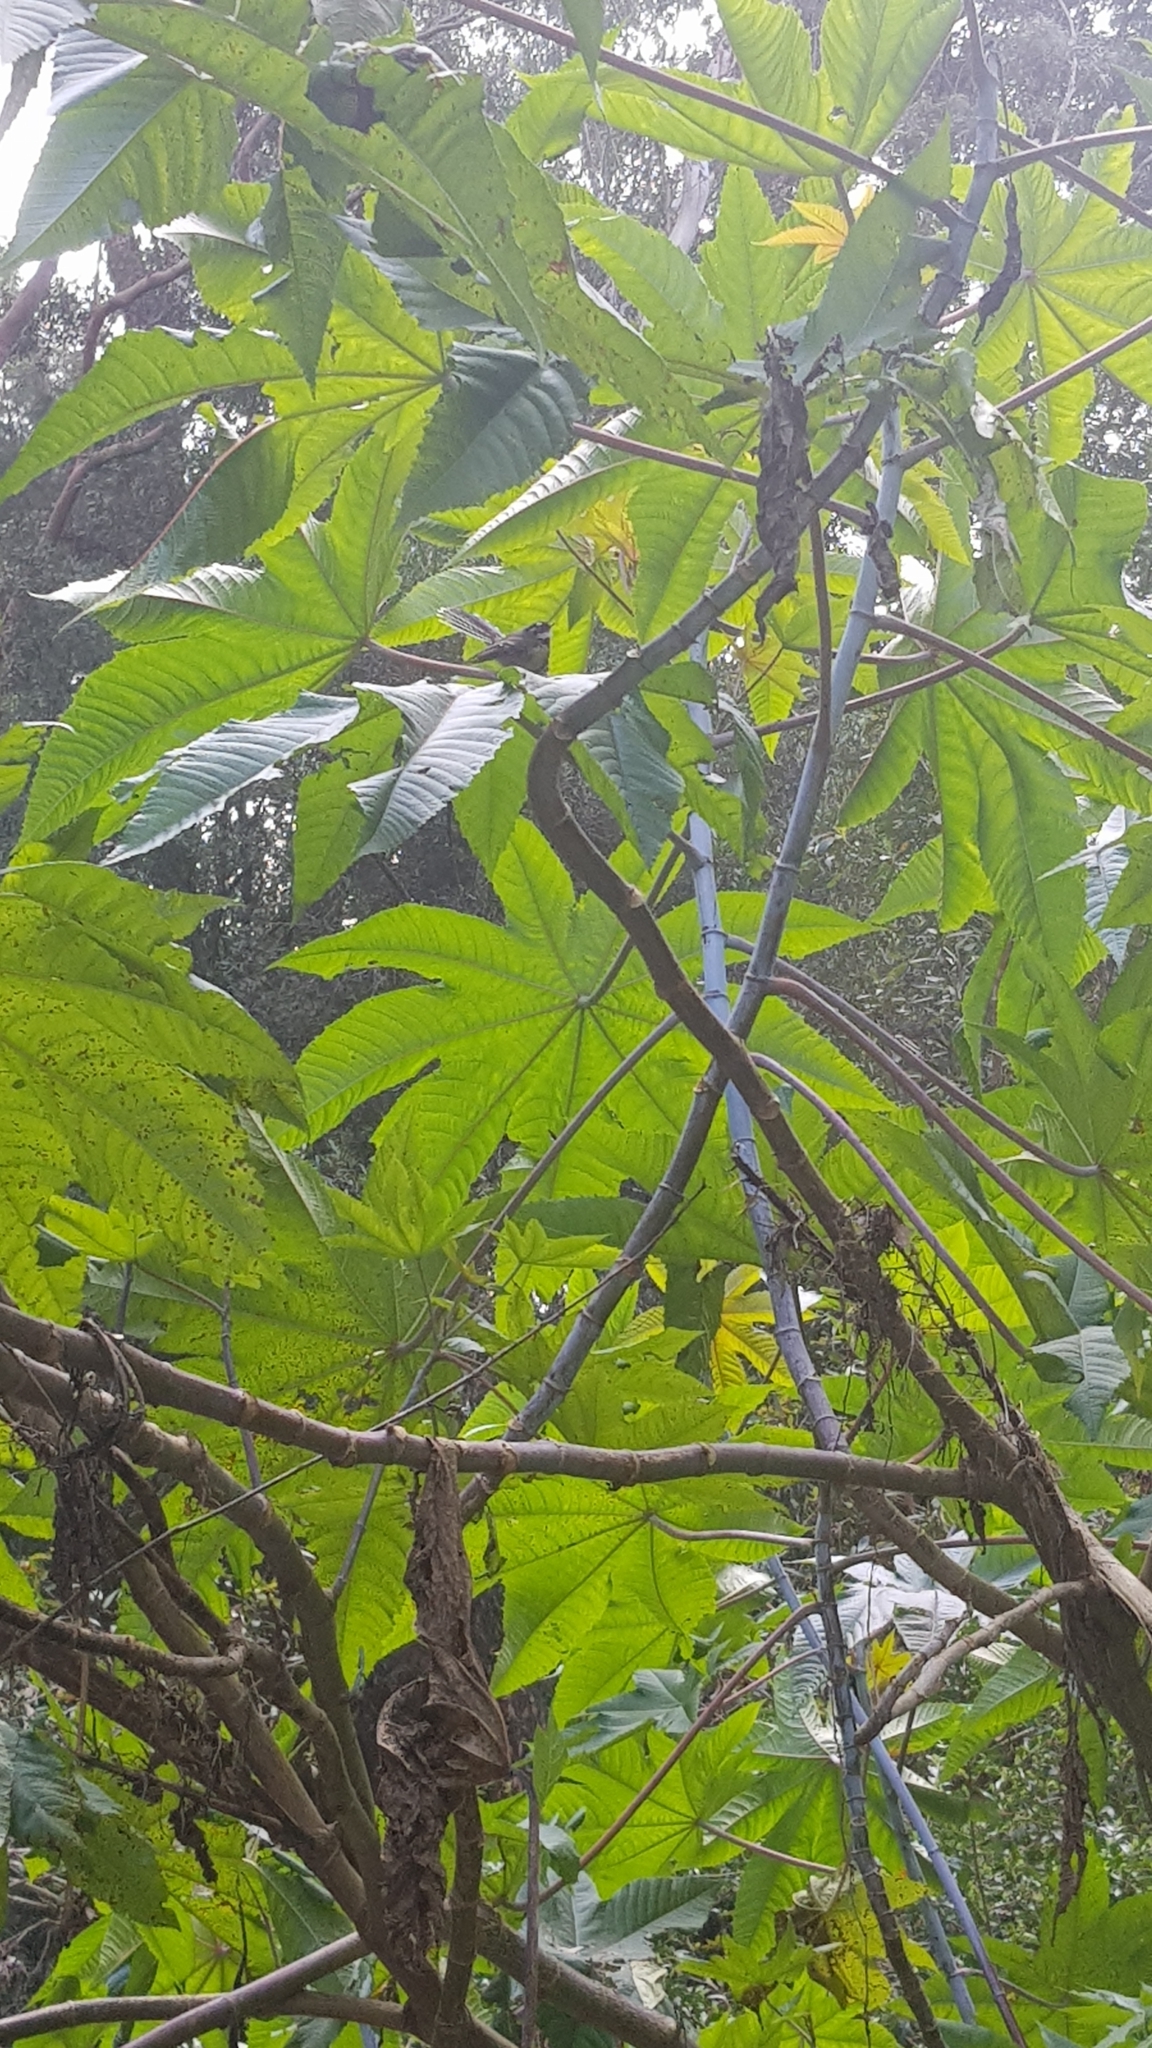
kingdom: Animalia
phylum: Chordata
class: Aves
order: Passeriformes
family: Rhipiduridae
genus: Rhipidura
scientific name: Rhipidura albiscapa
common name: Grey fantail
